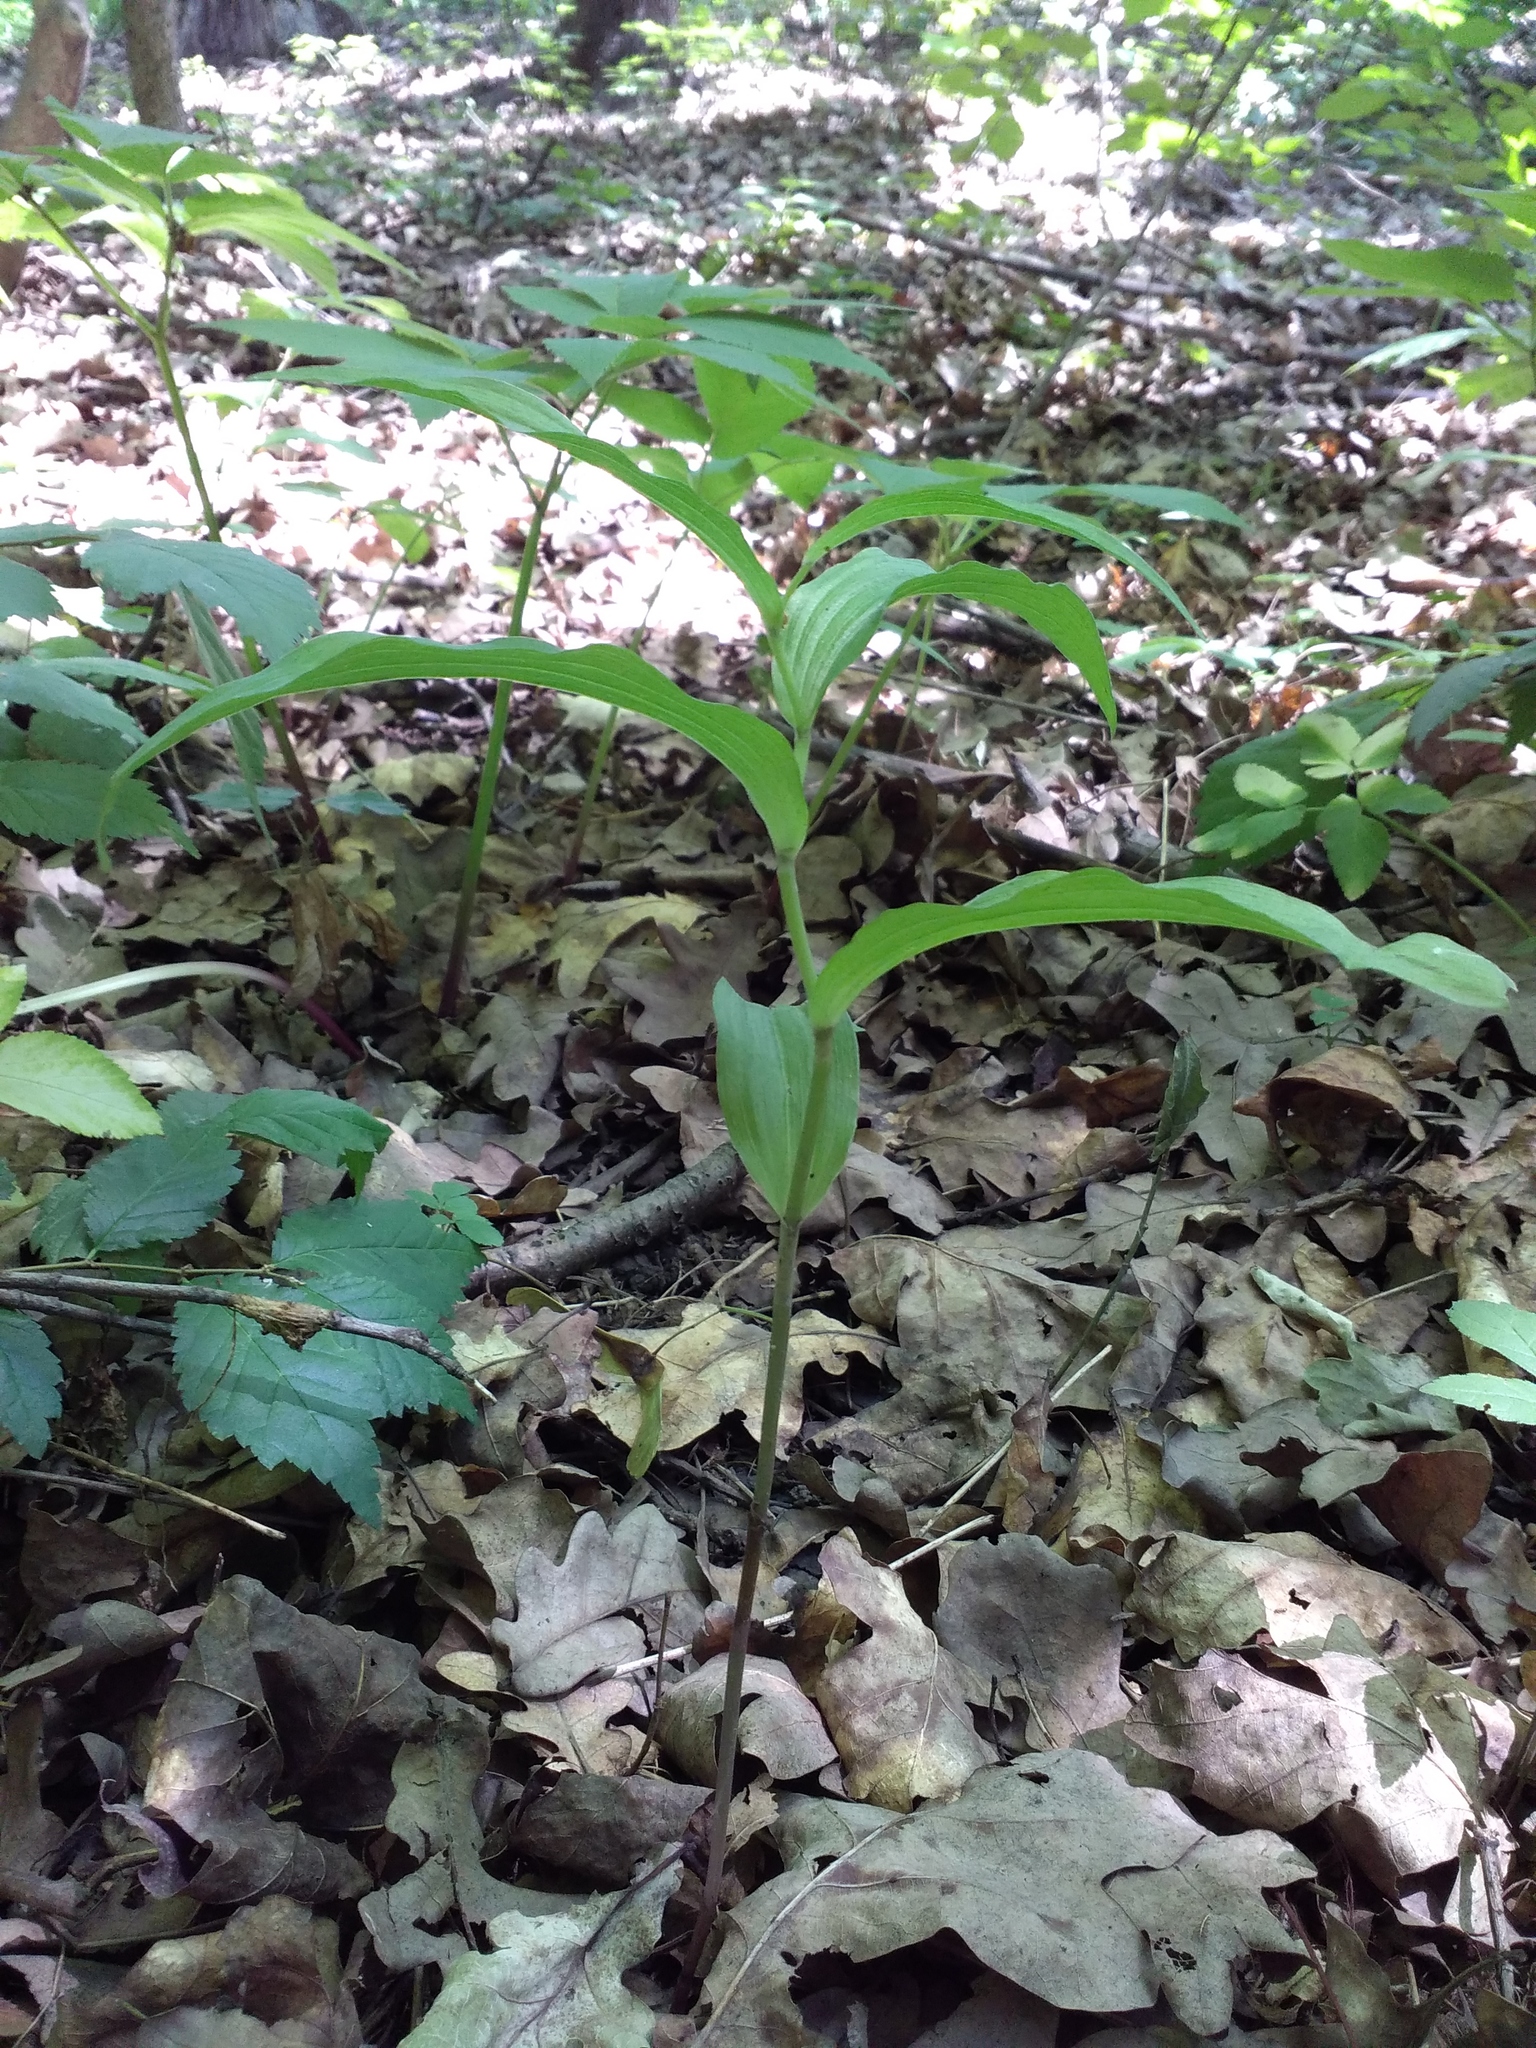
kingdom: Plantae
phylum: Tracheophyta
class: Liliopsida
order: Asparagales
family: Orchidaceae
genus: Epipactis
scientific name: Epipactis helleborine
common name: Broad-leaved helleborine
